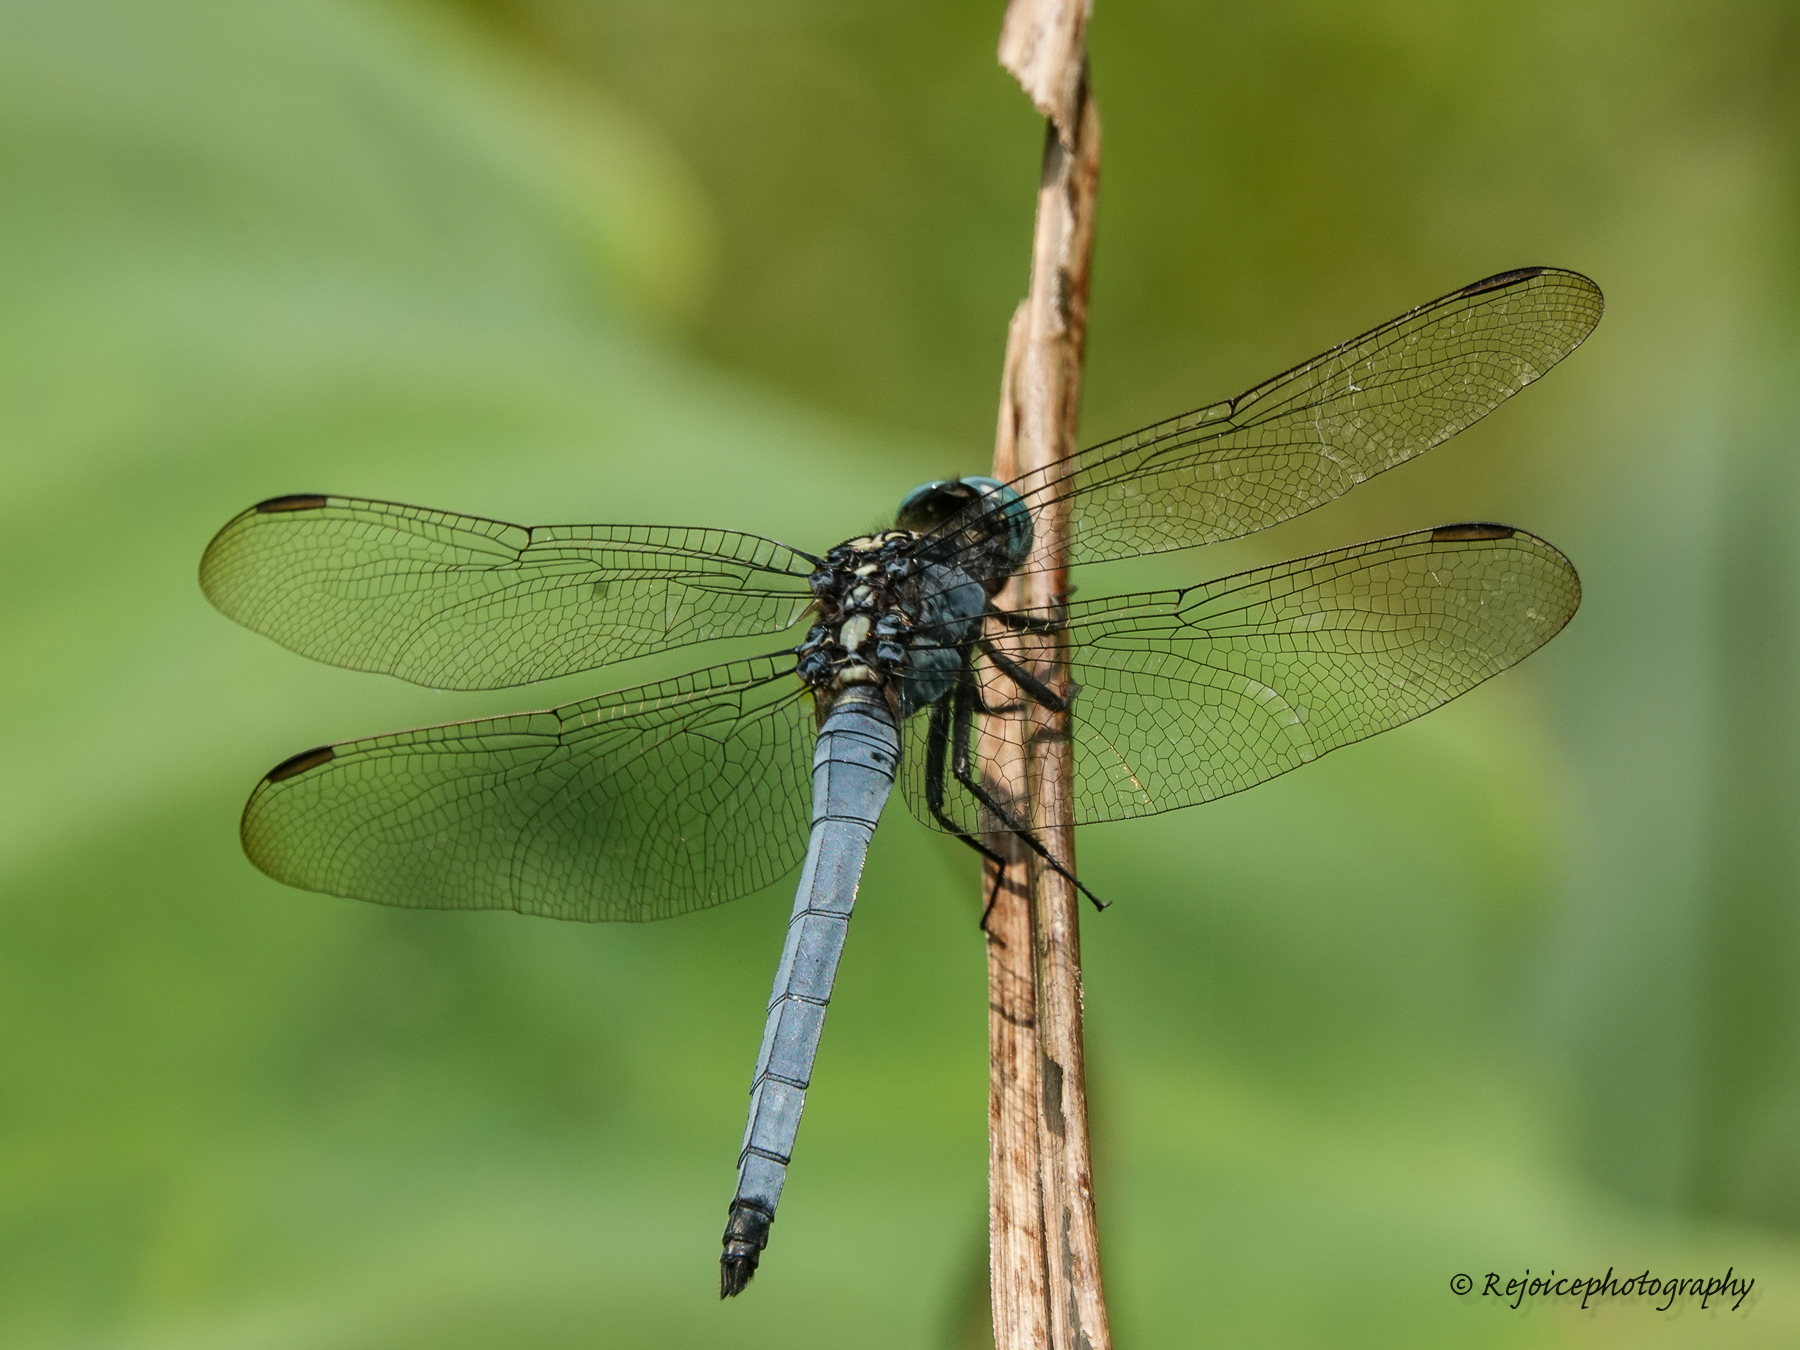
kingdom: Animalia
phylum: Arthropoda
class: Insecta
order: Odonata
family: Libellulidae
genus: Orthetrum
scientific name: Orthetrum luzonicum
